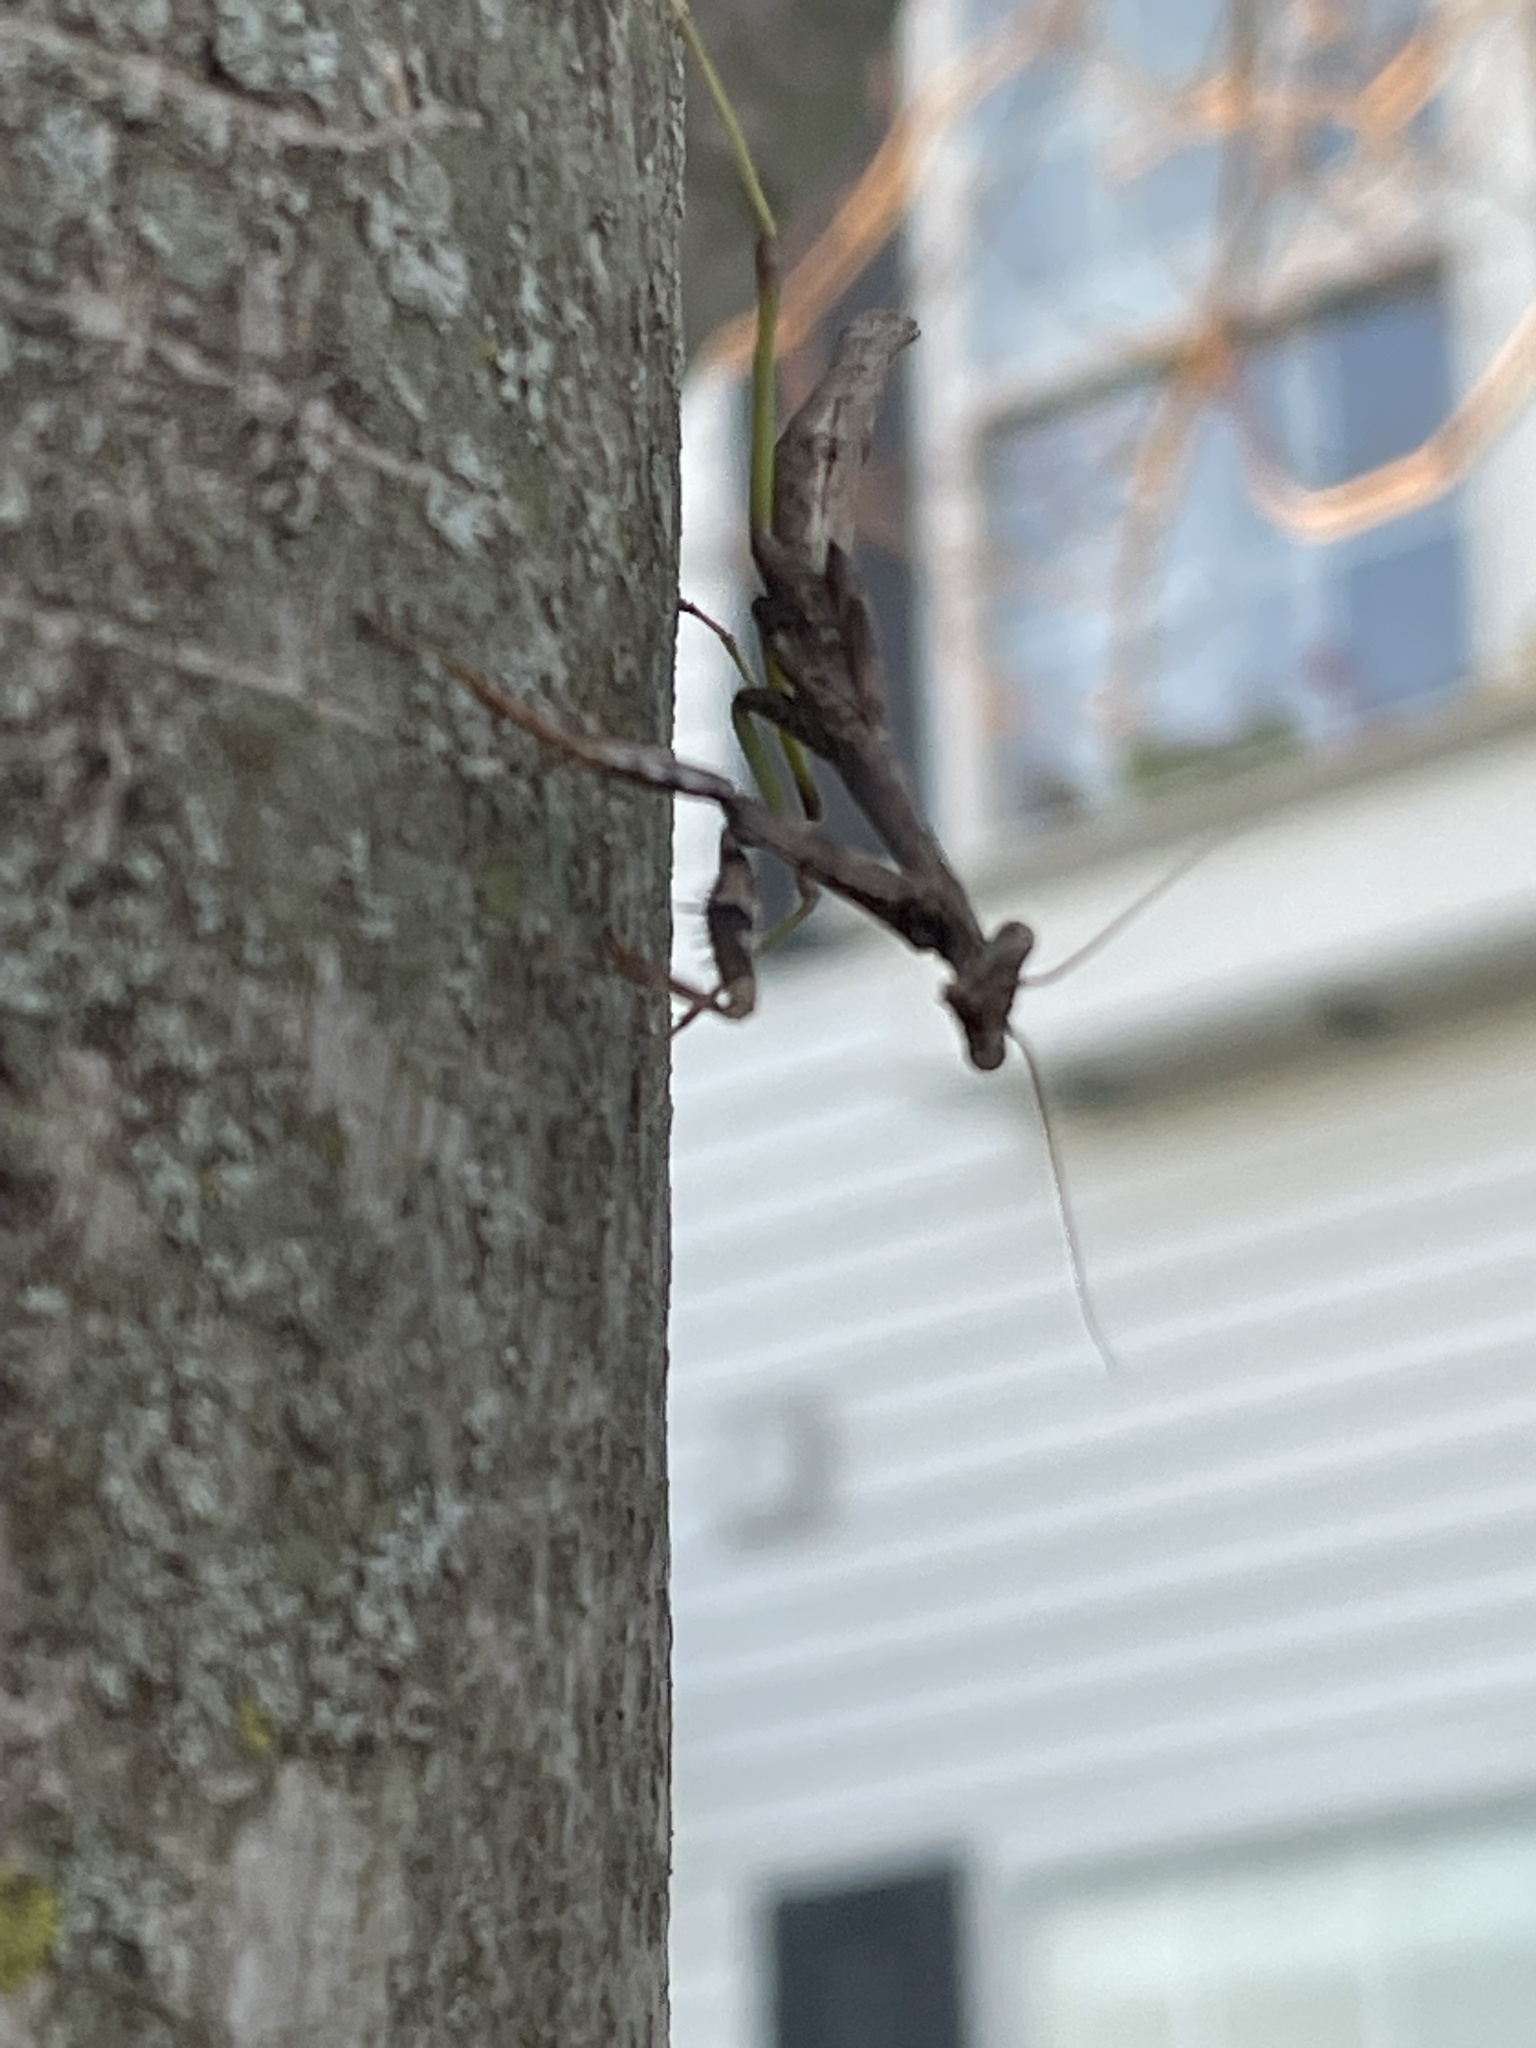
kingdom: Animalia
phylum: Arthropoda
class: Insecta
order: Mantodea
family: Mantidae
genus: Stagmomantis
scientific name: Stagmomantis carolina
